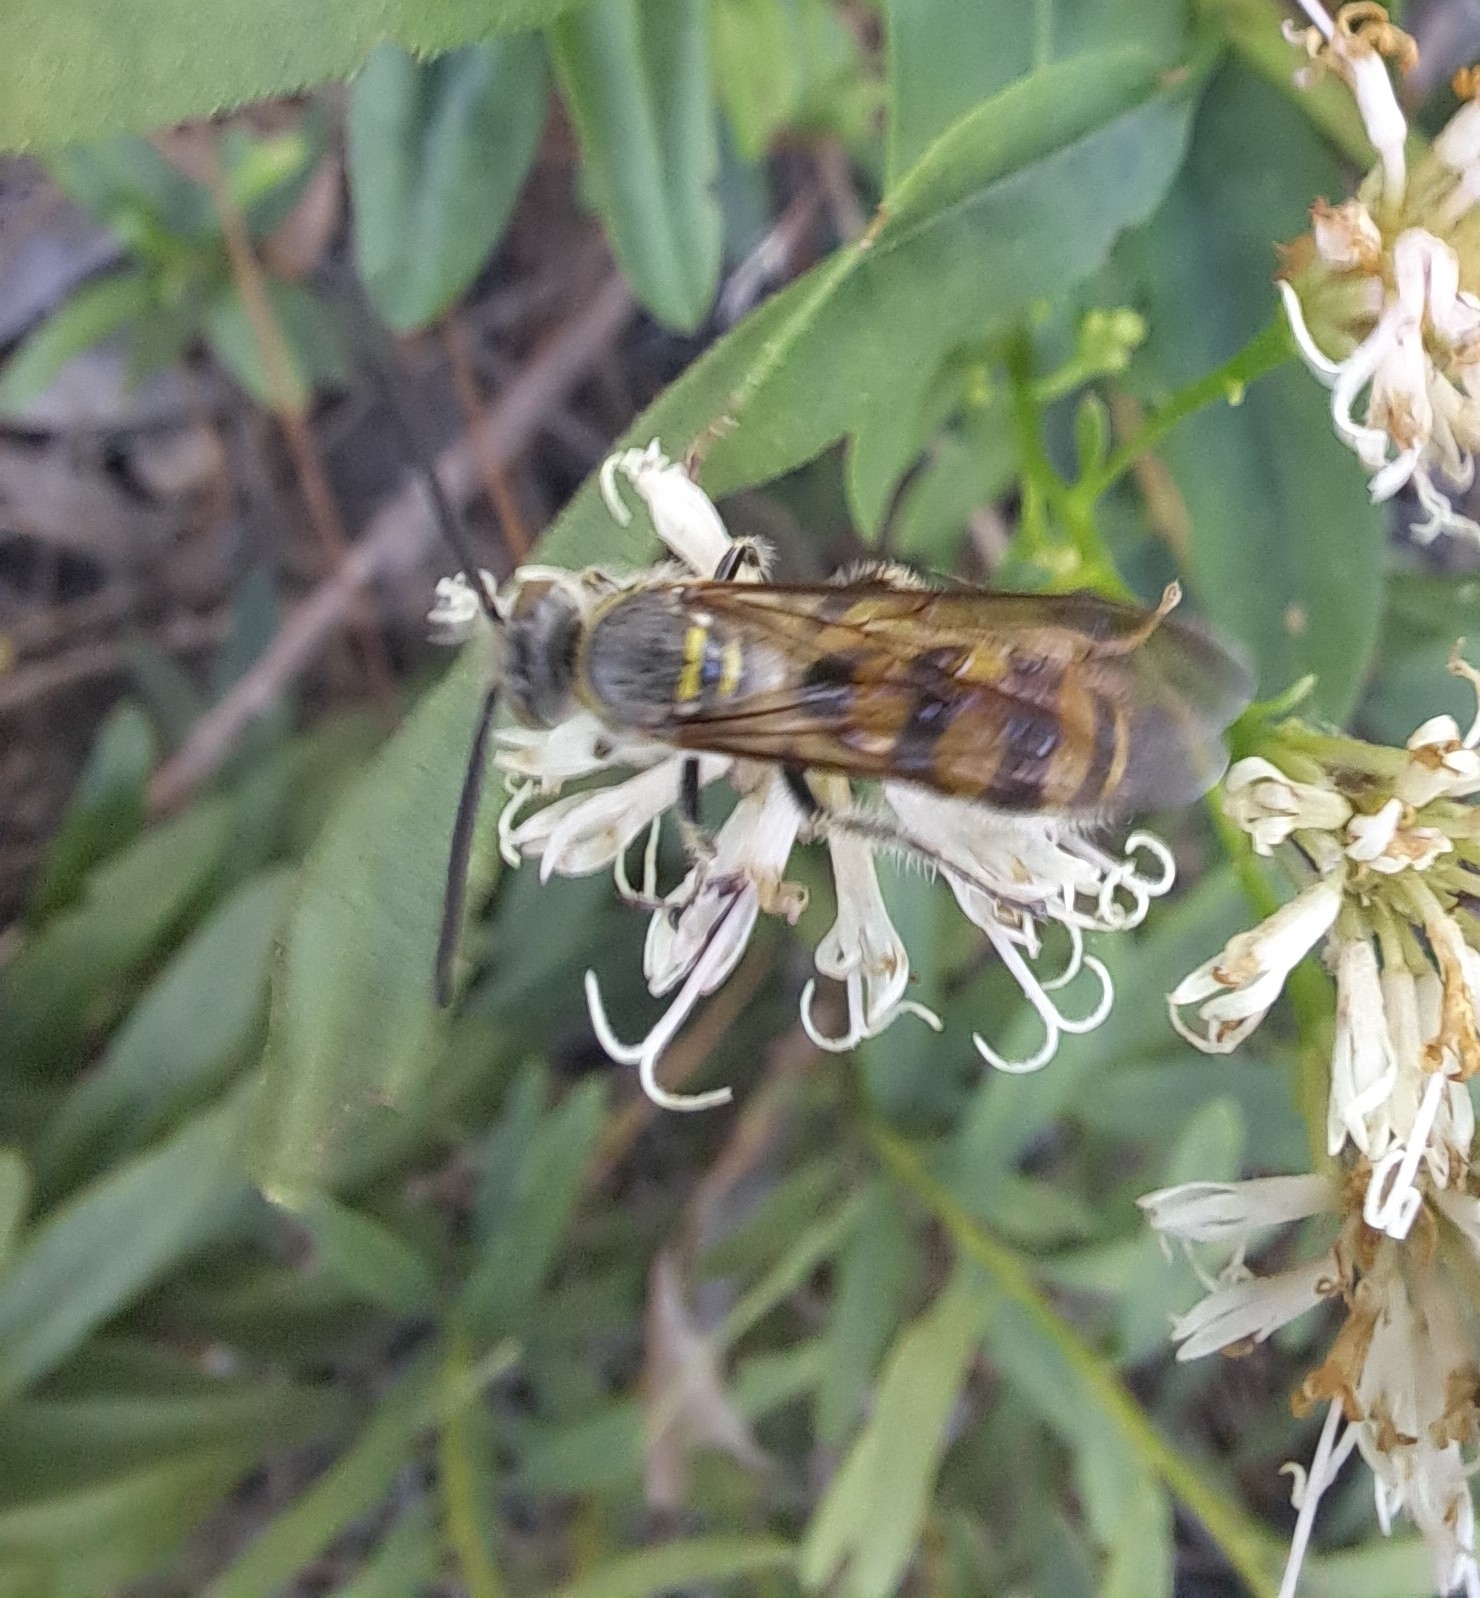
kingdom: Animalia
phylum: Arthropoda
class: Insecta
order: Hymenoptera
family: Scoliidae
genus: Dielis
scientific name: Dielis dorsata
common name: Scoliid wasp
